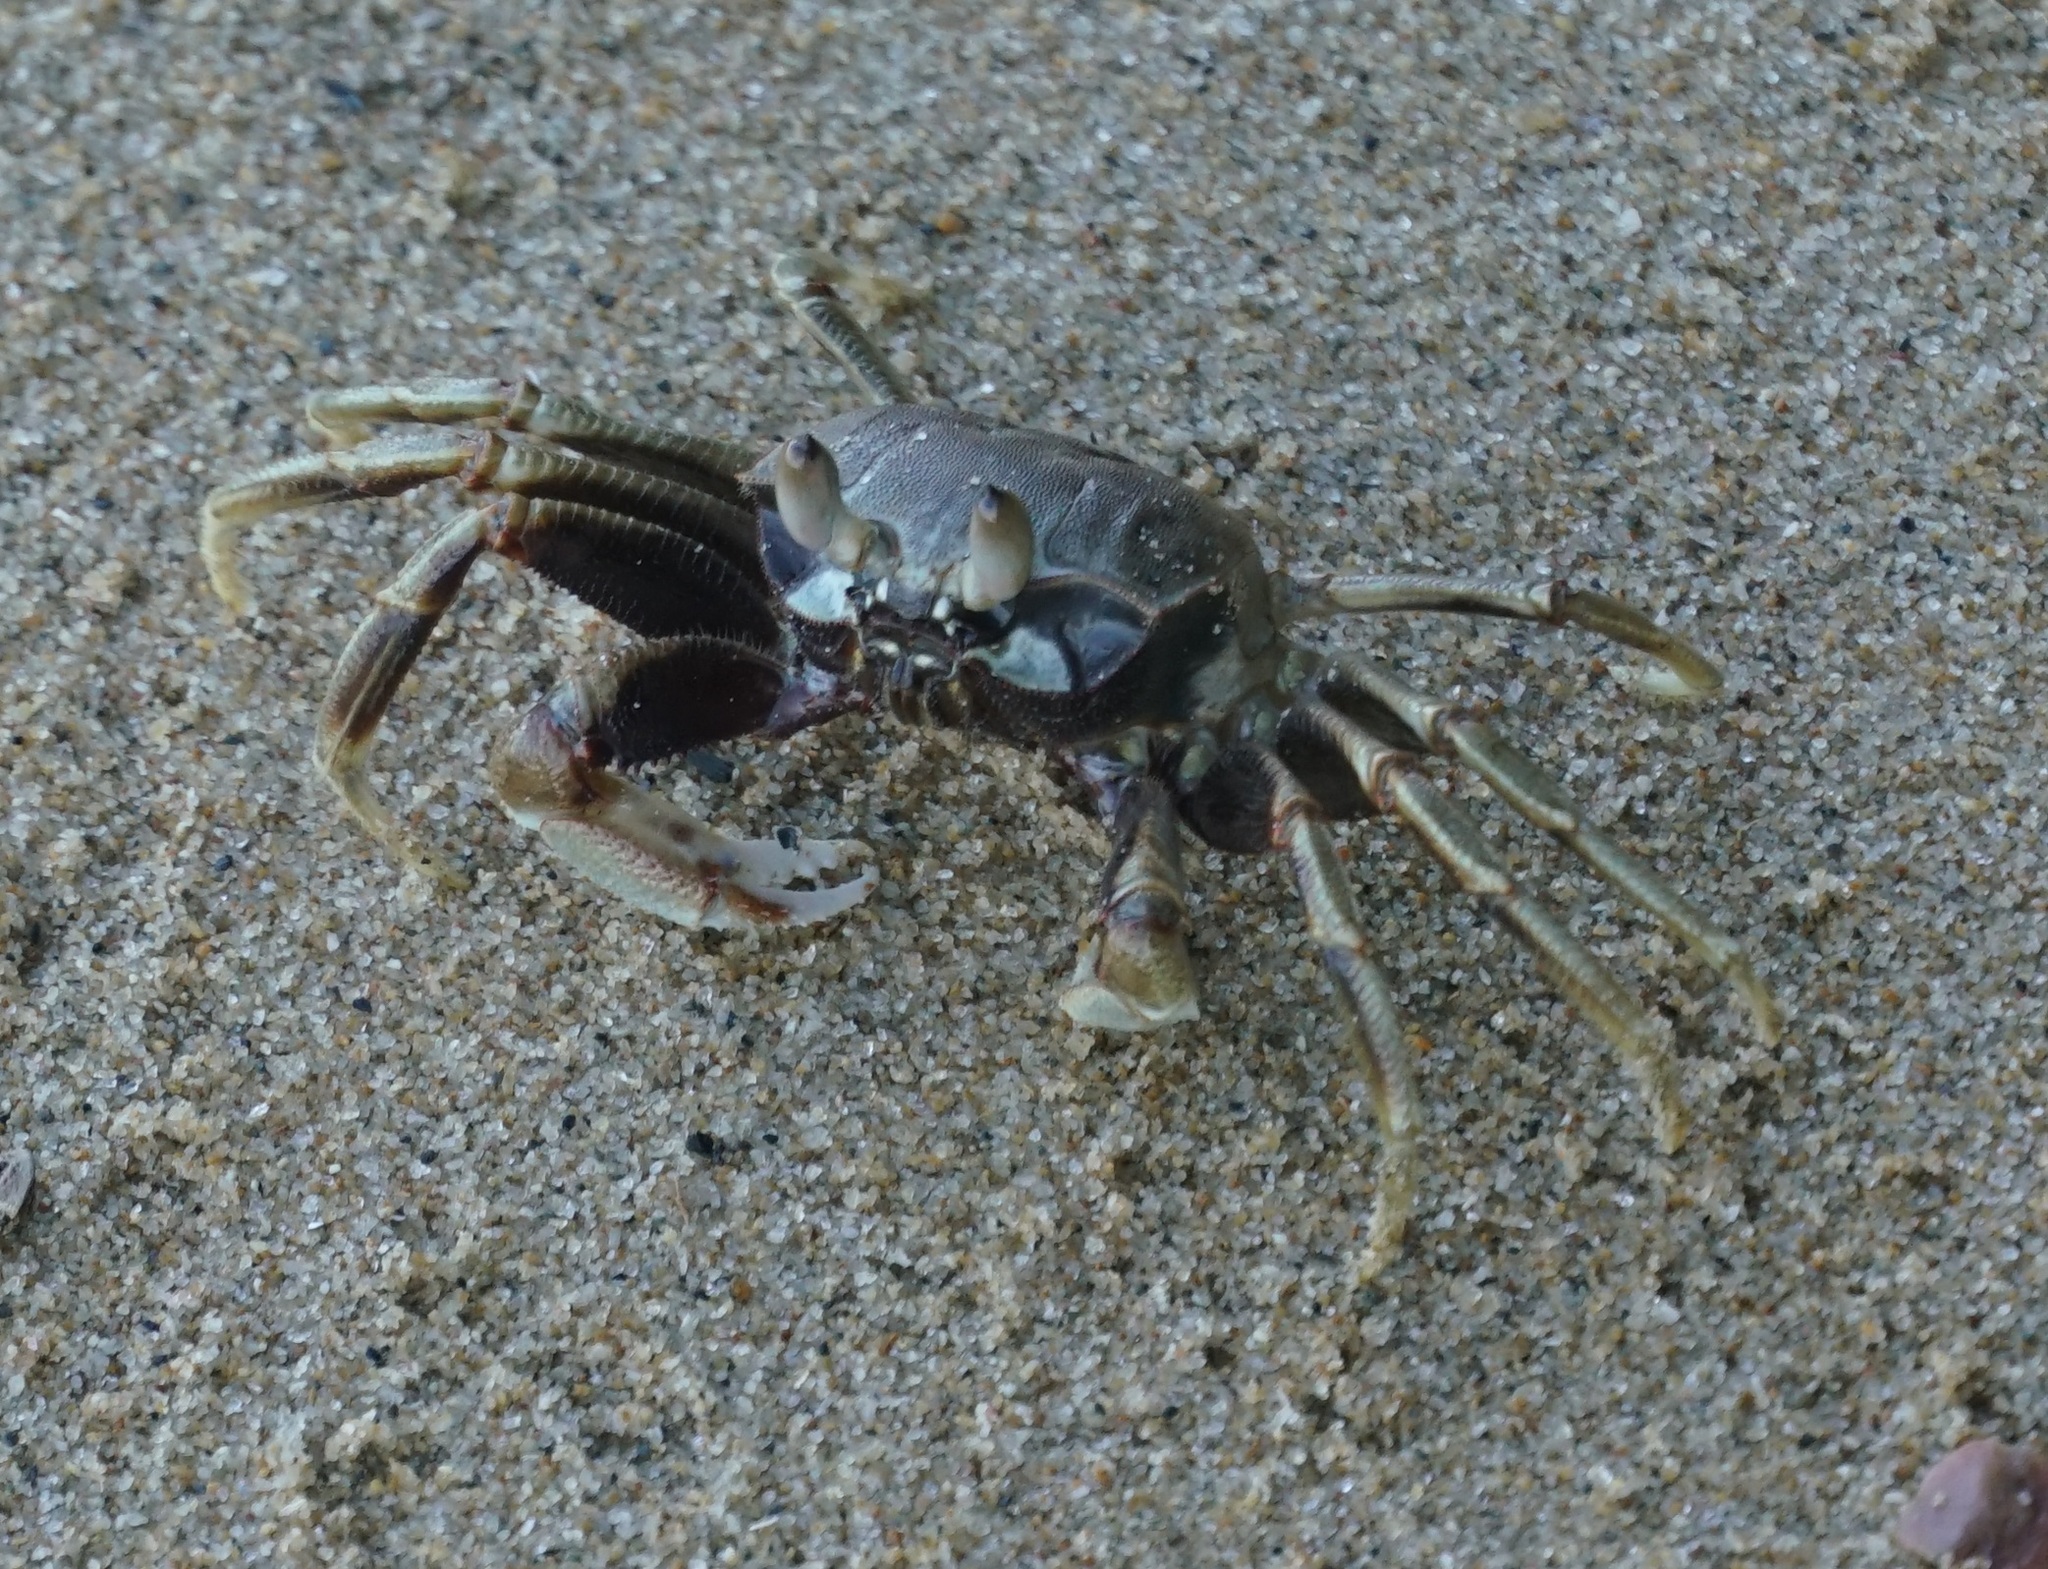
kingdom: Animalia
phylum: Arthropoda
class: Malacostraca
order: Decapoda
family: Ocypodidae
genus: Ocypode
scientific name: Ocypode ceratophthalmus
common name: Indo-pacific ghost crab
